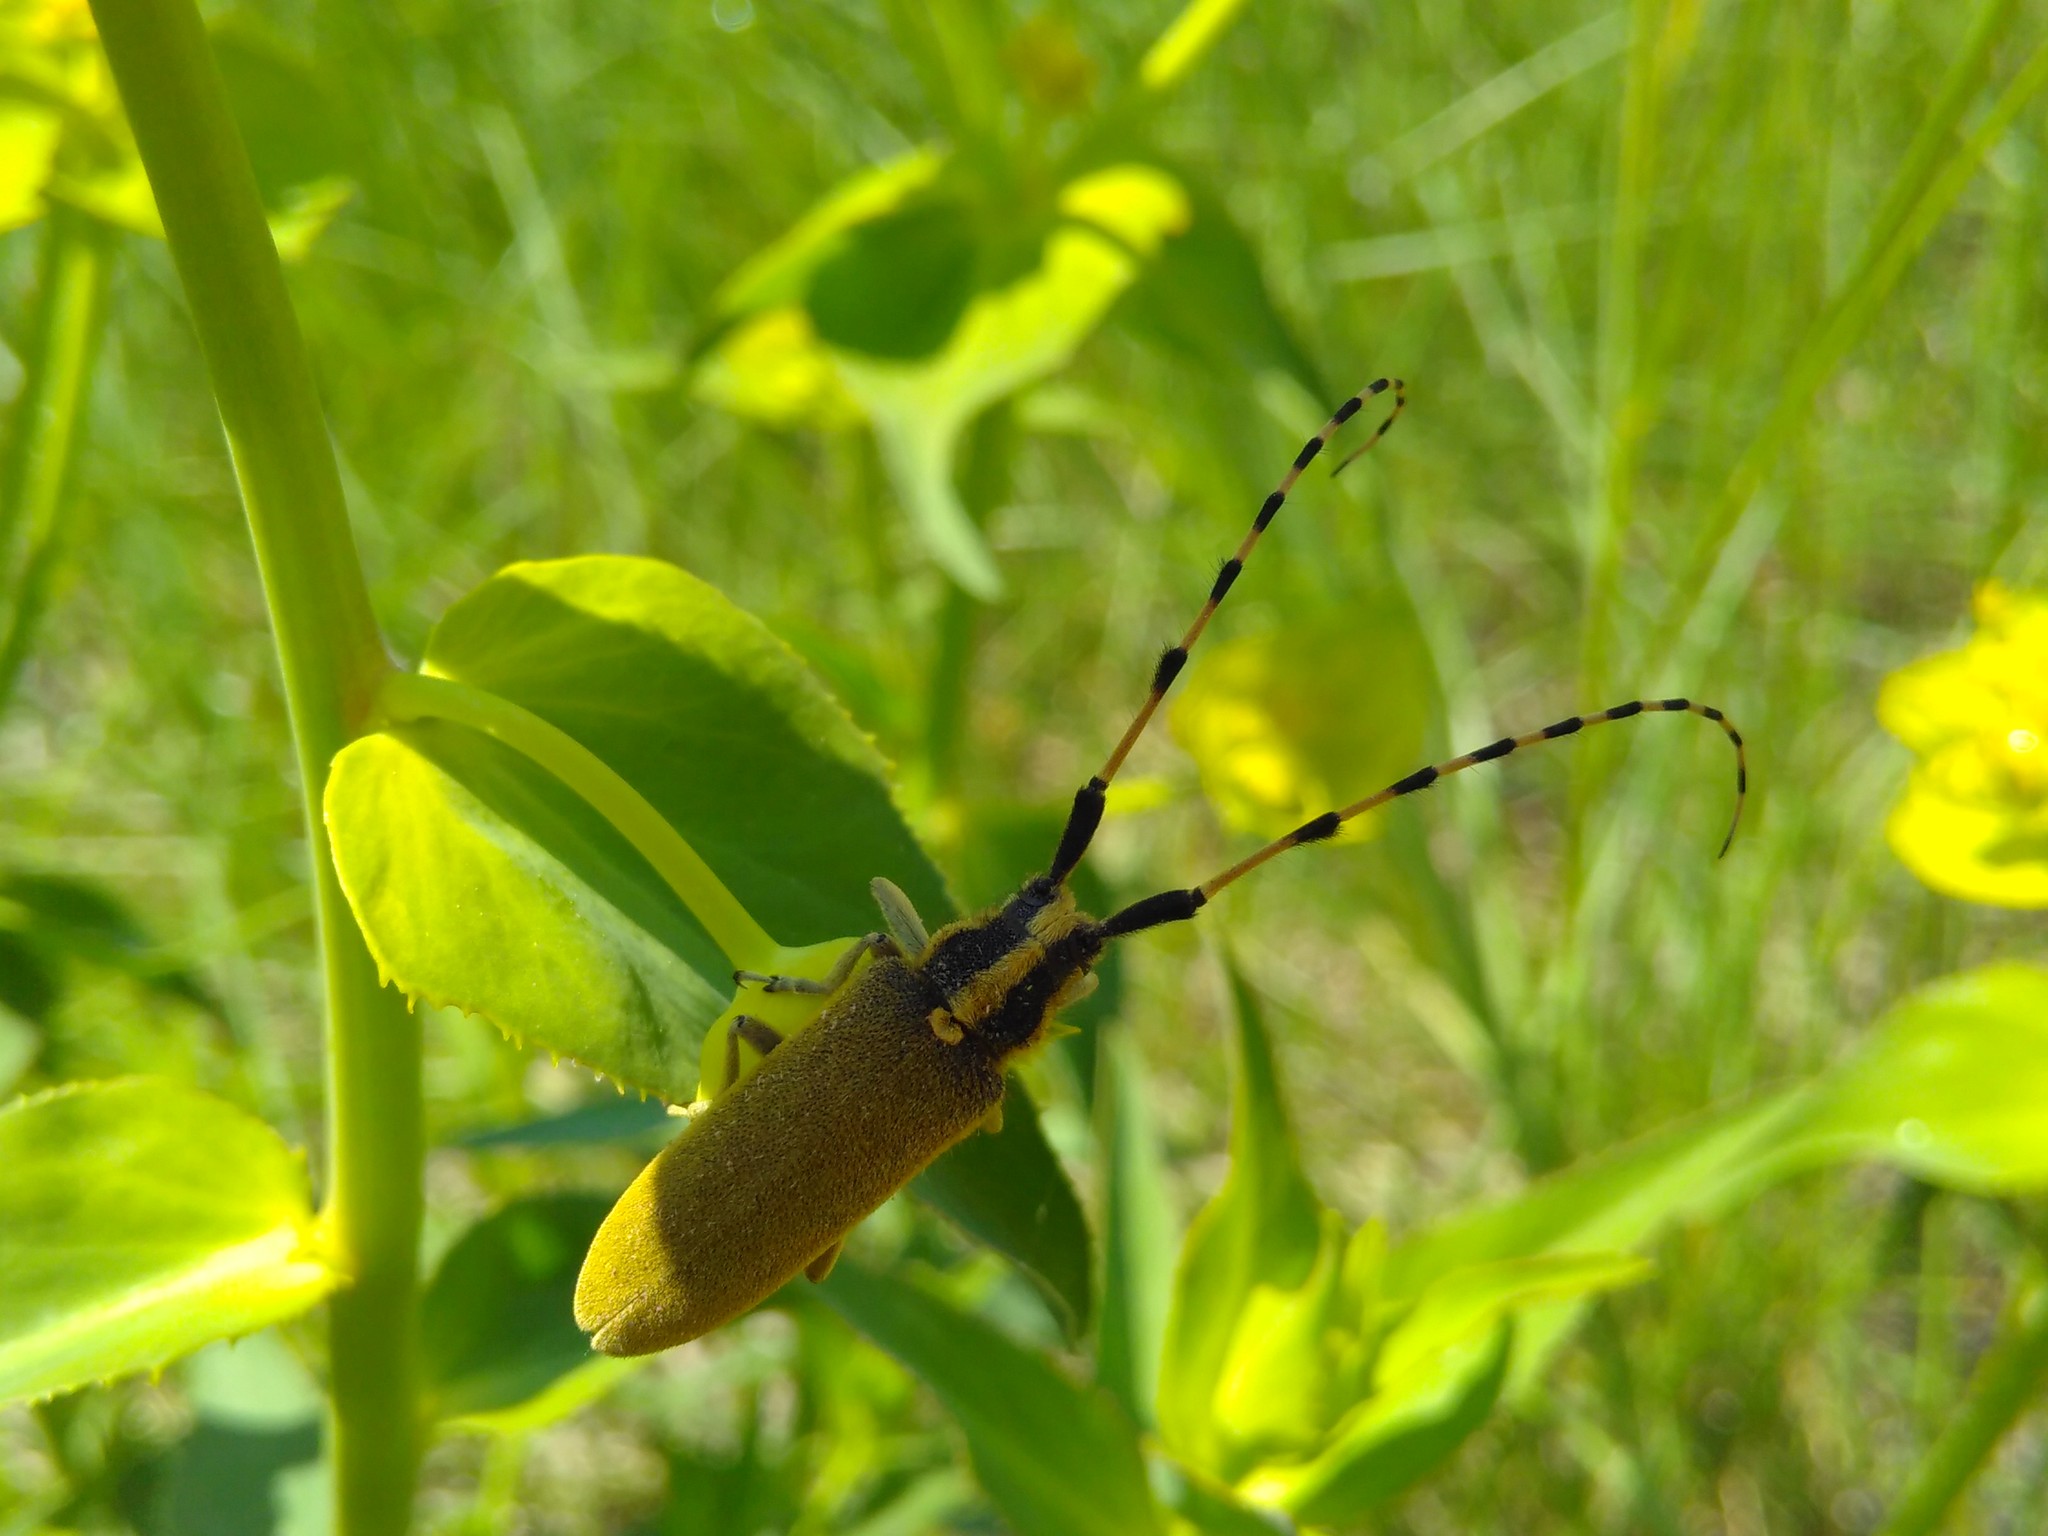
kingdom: Animalia
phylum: Arthropoda
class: Insecta
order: Coleoptera
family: Cerambycidae
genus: Agapanthia
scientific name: Agapanthia kirbyi
